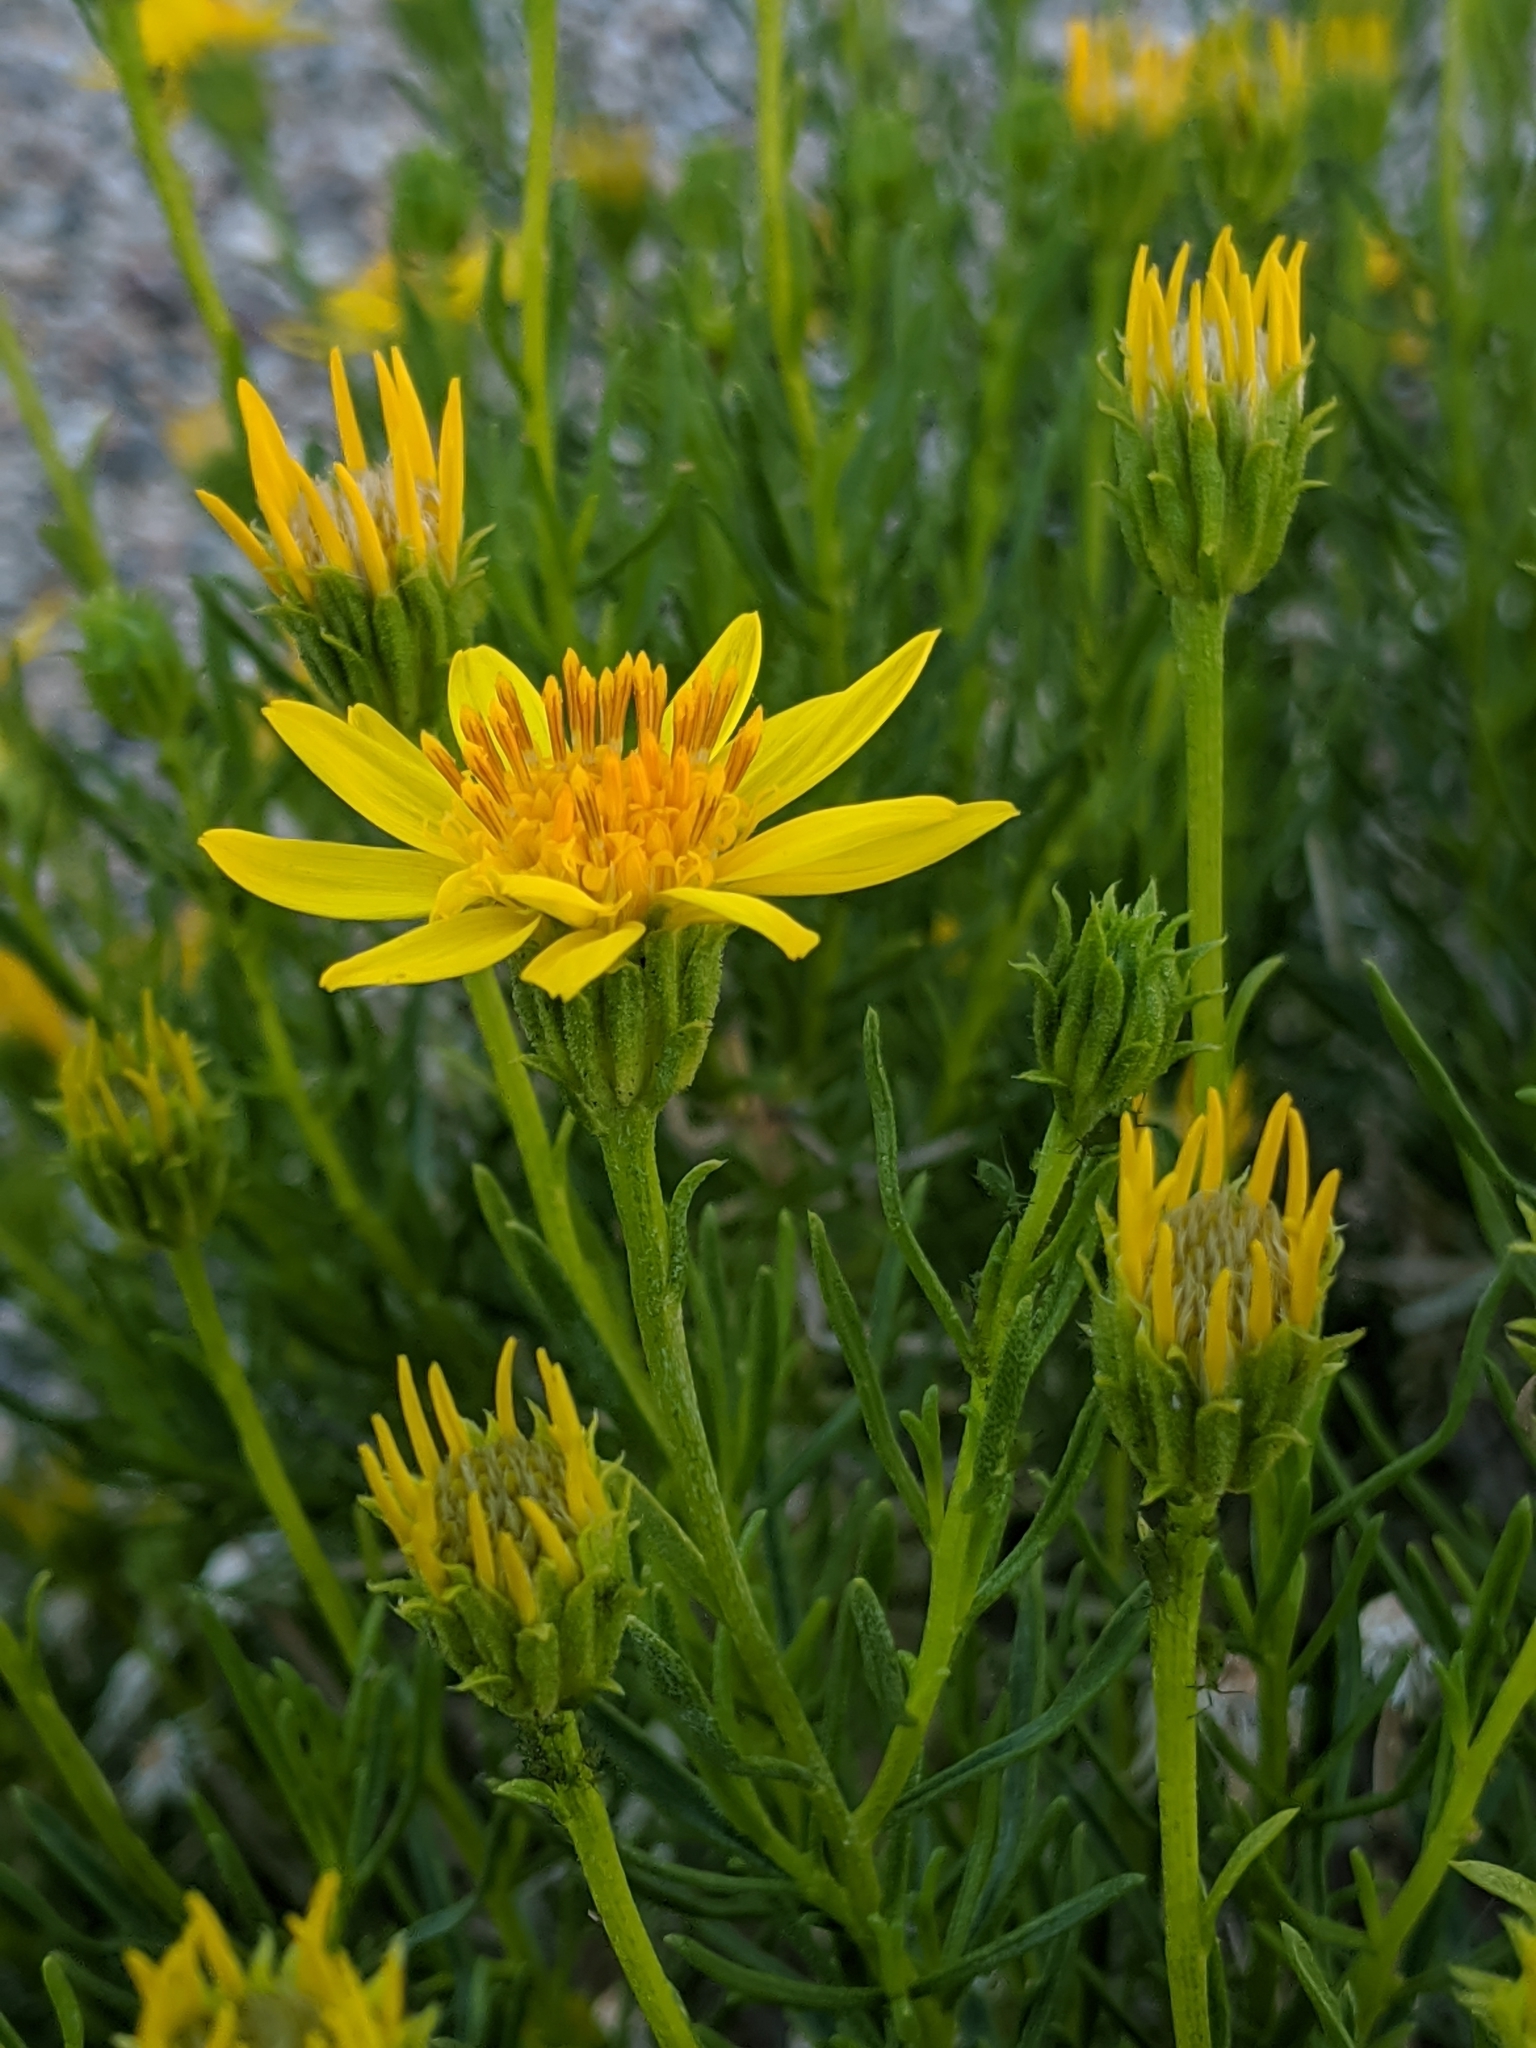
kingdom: Plantae
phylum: Tracheophyta
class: Magnoliopsida
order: Asterales
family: Asteraceae
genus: Ericameria
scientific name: Ericameria linearifolia
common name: Interior goldenbush
